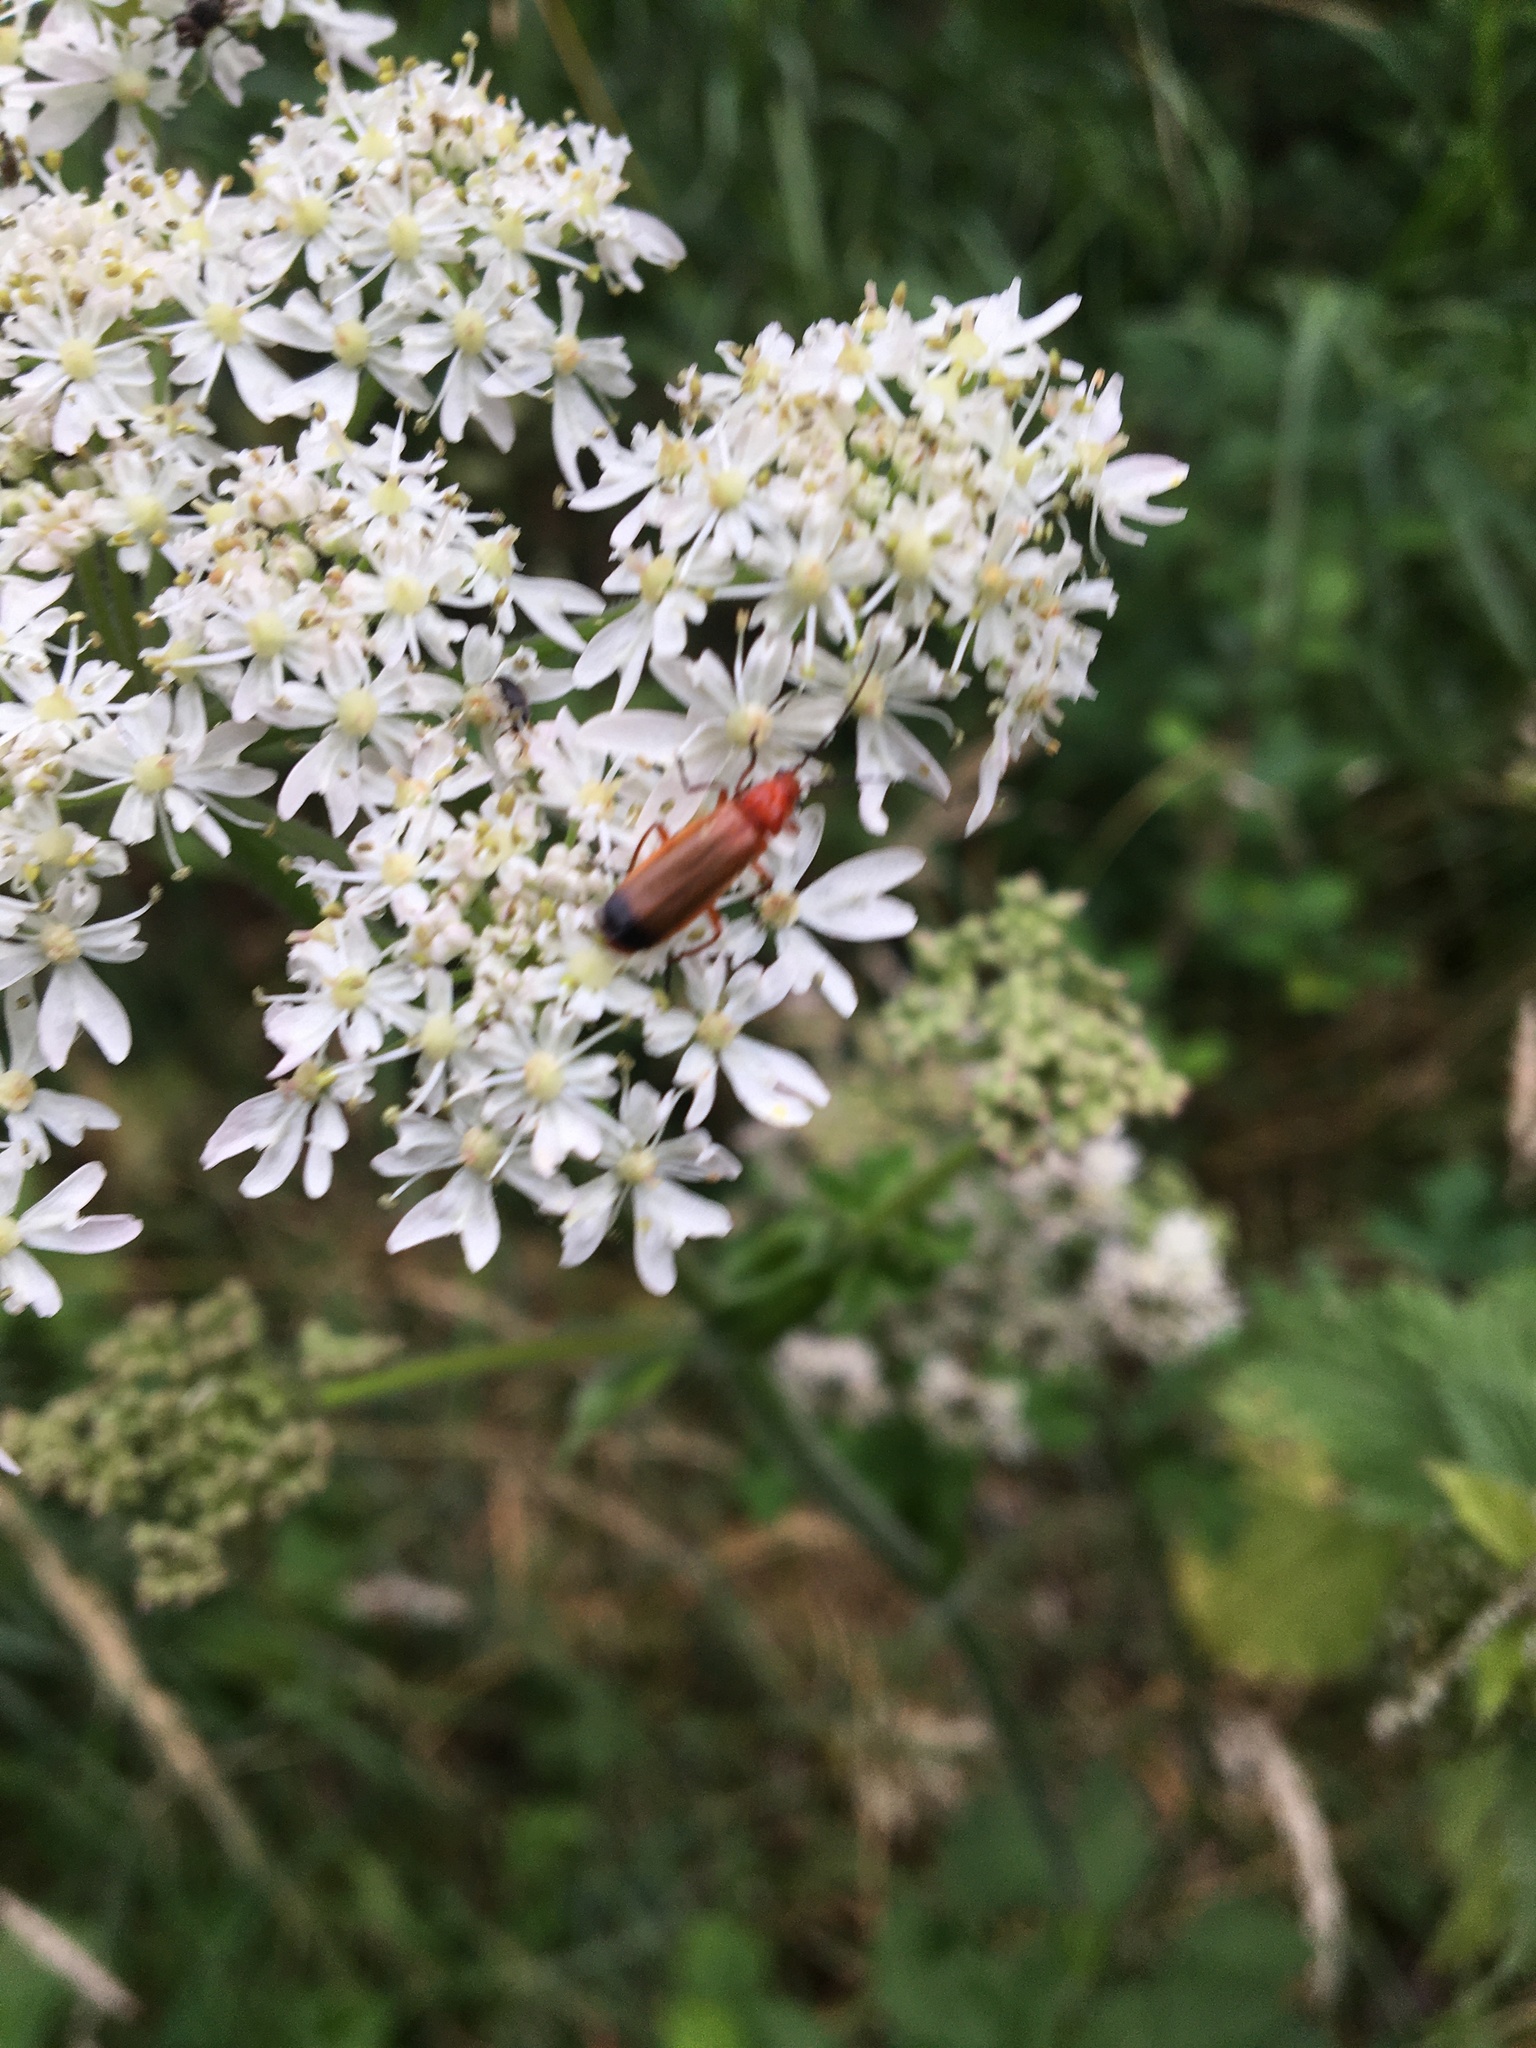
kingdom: Animalia
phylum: Arthropoda
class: Insecta
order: Coleoptera
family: Cantharidae
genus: Rhagonycha
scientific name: Rhagonycha fulva
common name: Common red soldier beetle
